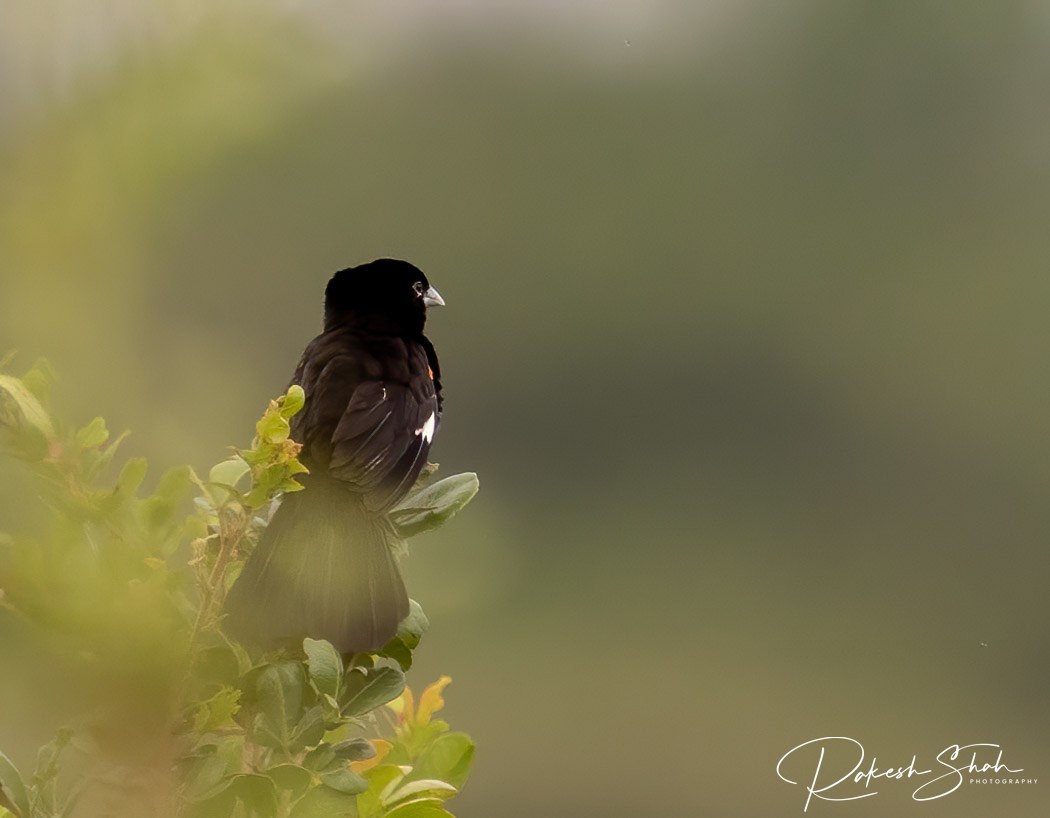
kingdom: Animalia
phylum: Chordata
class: Aves
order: Passeriformes
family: Ploceidae
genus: Euplectes
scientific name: Euplectes albonotatus
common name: White-winged widowbird
